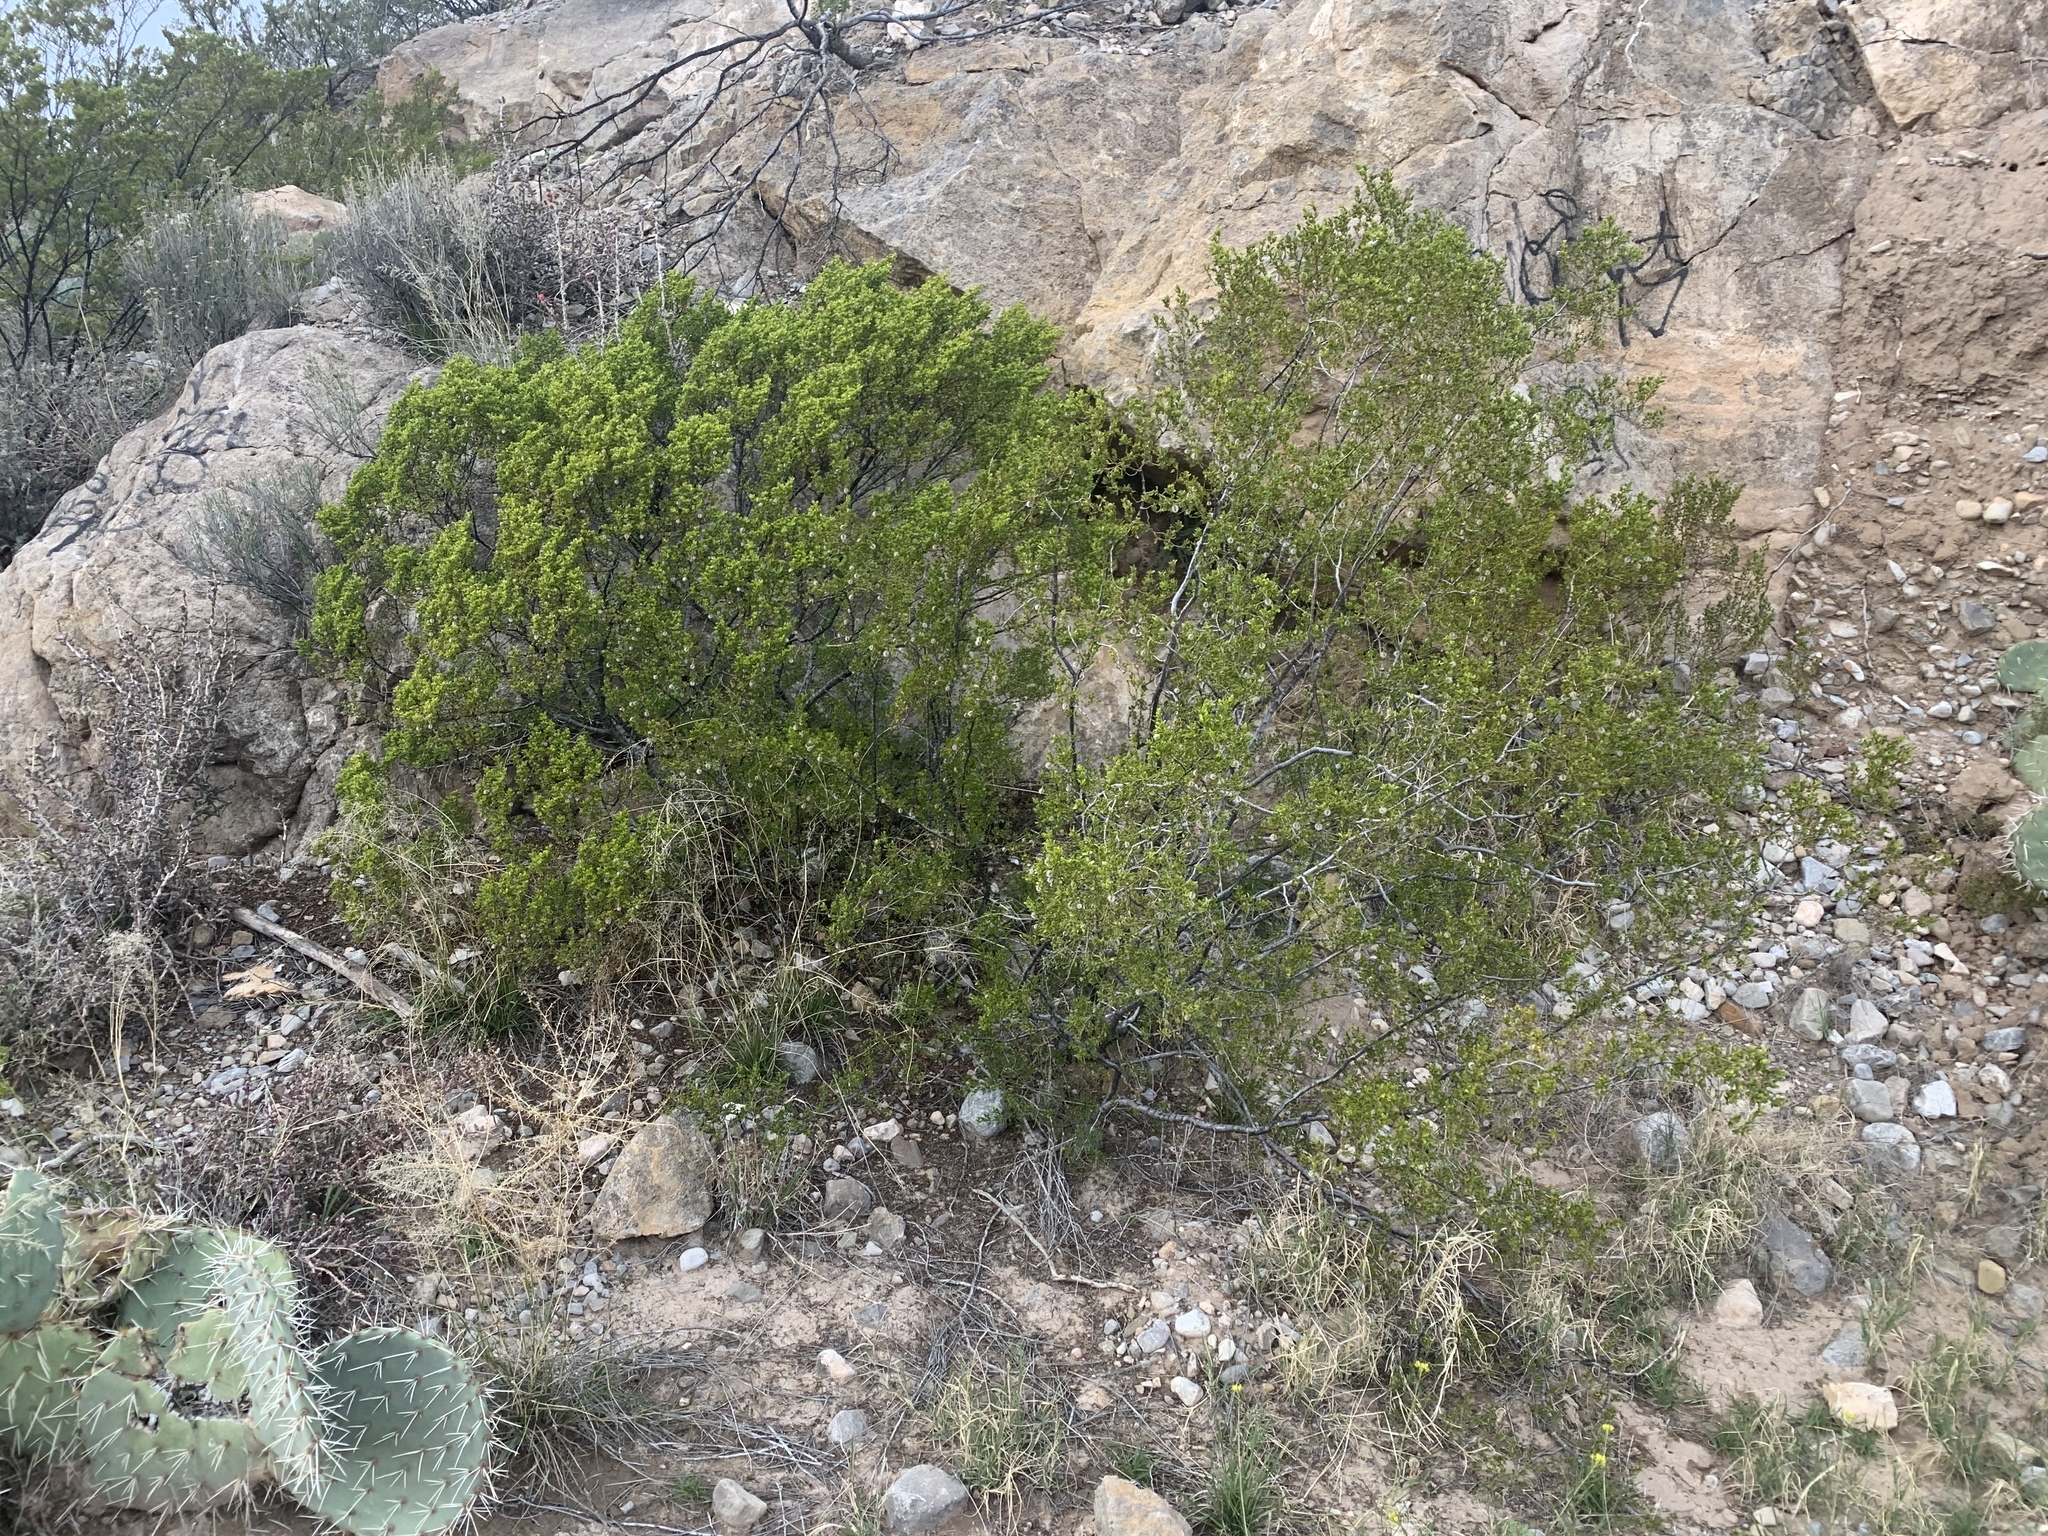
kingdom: Plantae
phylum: Tracheophyta
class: Magnoliopsida
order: Zygophyllales
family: Zygophyllaceae
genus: Larrea
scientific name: Larrea tridentata
